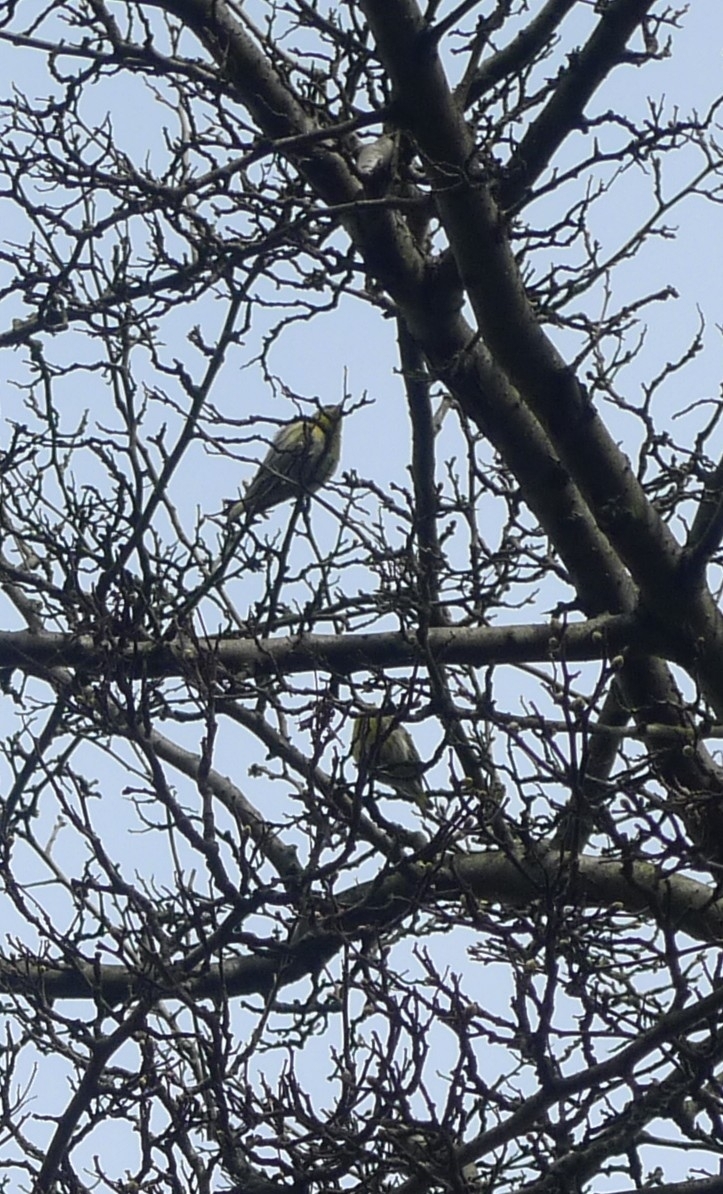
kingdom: Animalia
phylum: Chordata
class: Aves
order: Passeriformes
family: Fringillidae
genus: Spinus
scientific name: Spinus spinus
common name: Eurasian siskin
